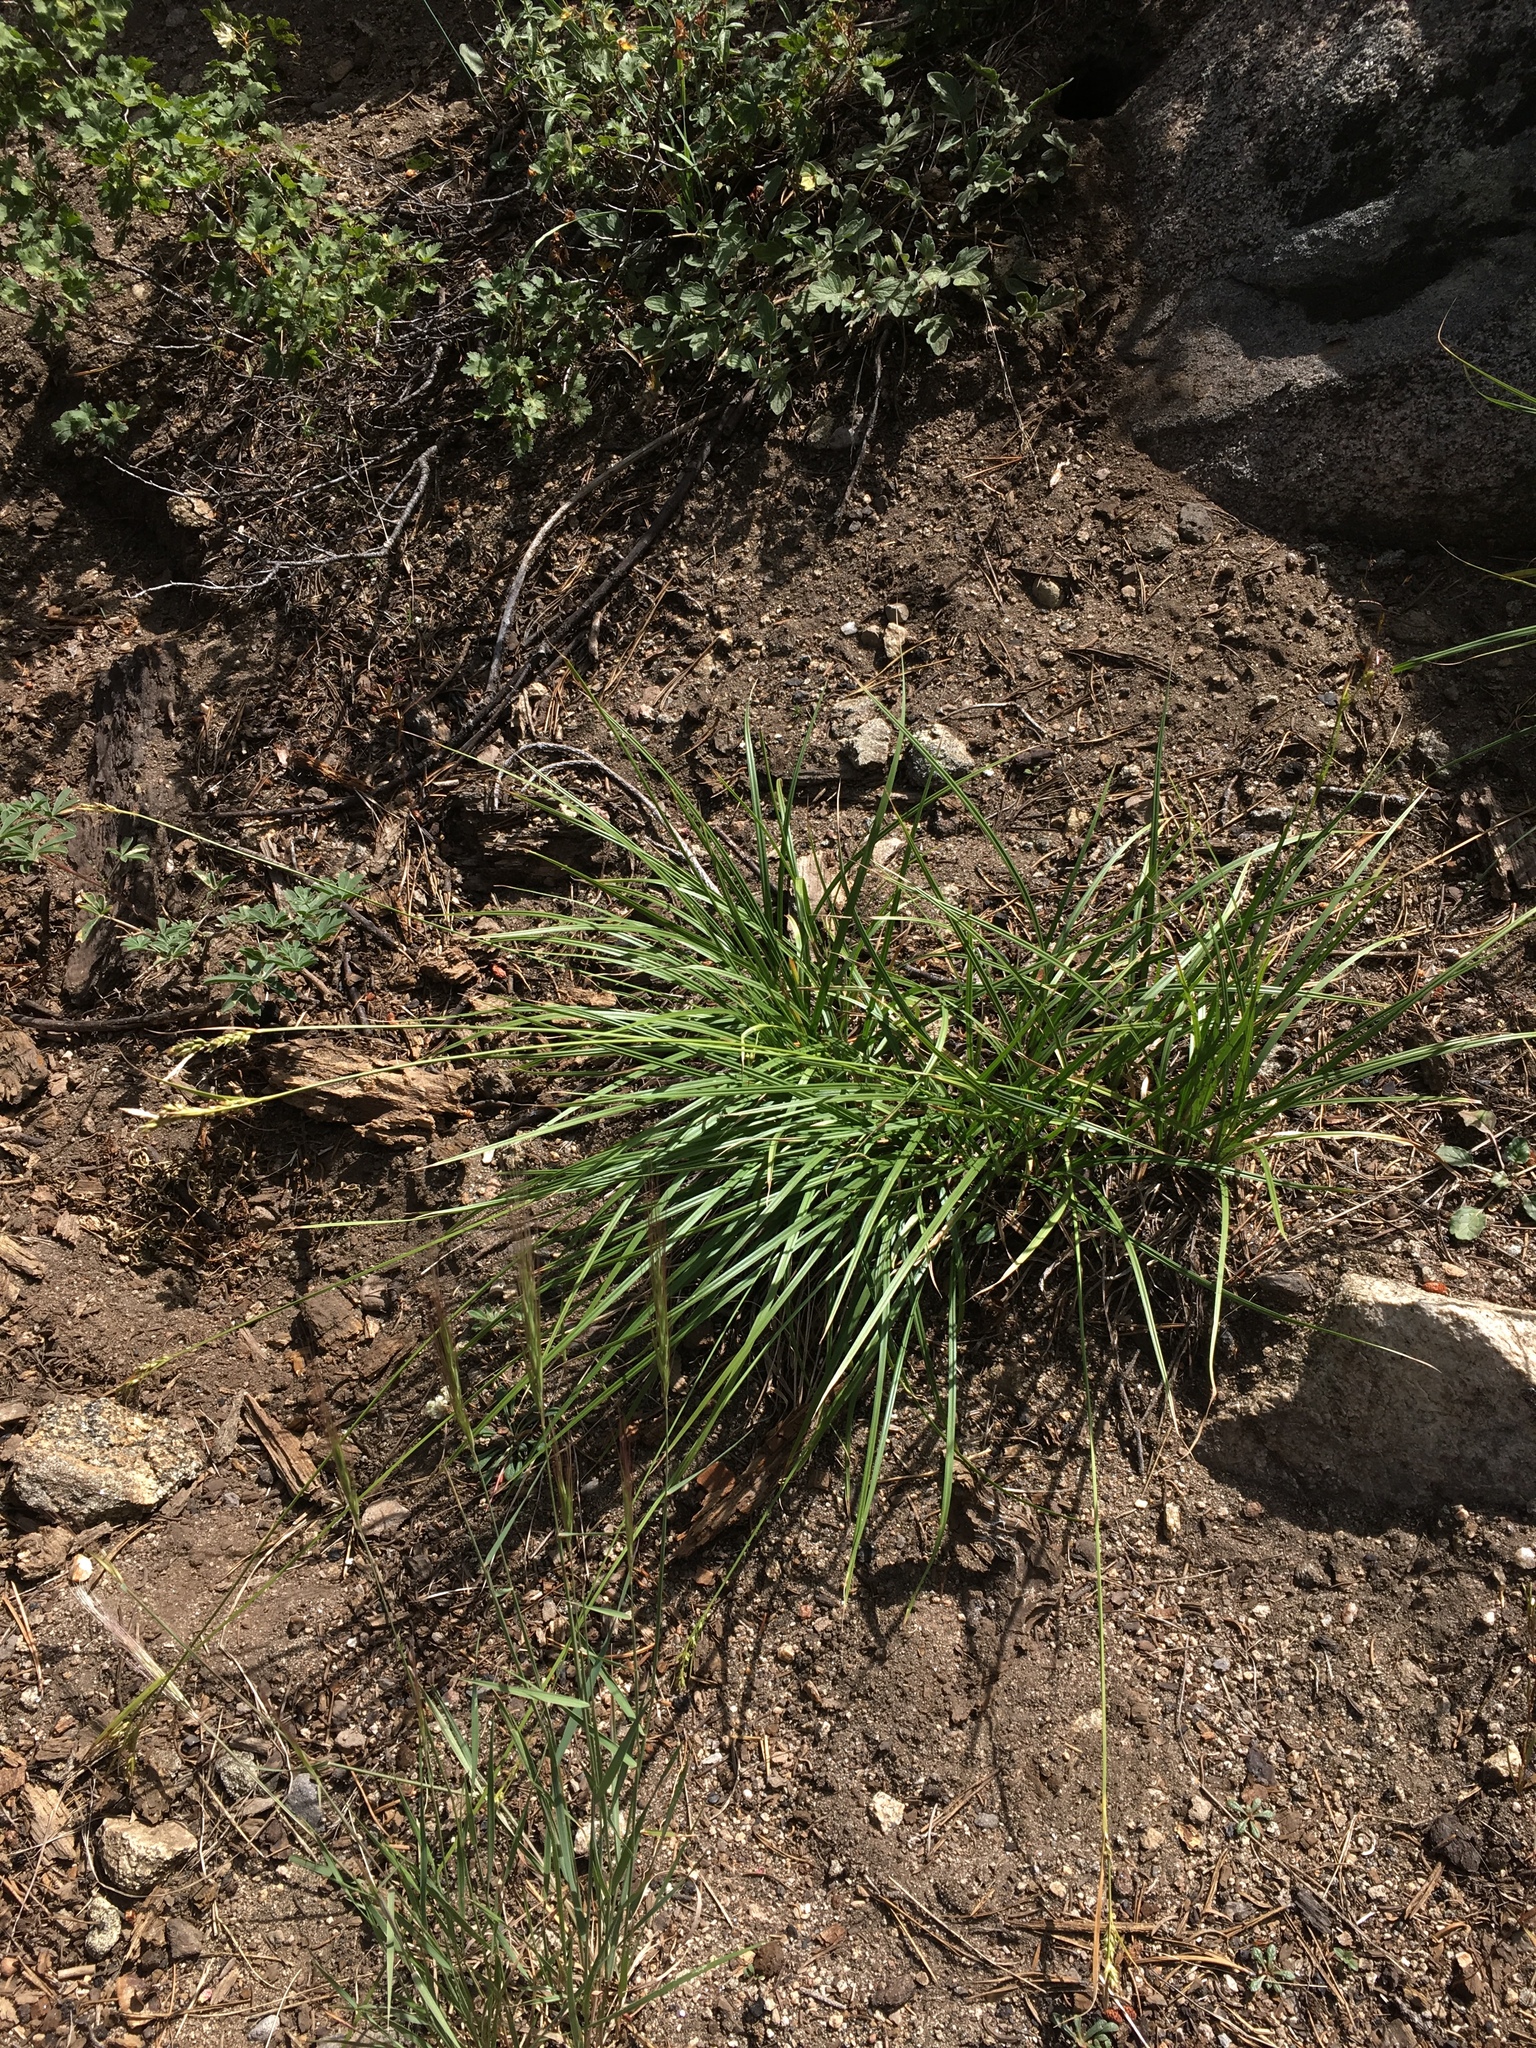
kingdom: Plantae
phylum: Tracheophyta
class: Liliopsida
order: Poales
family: Cyperaceae
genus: Carex
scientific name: Carex whitneyi
